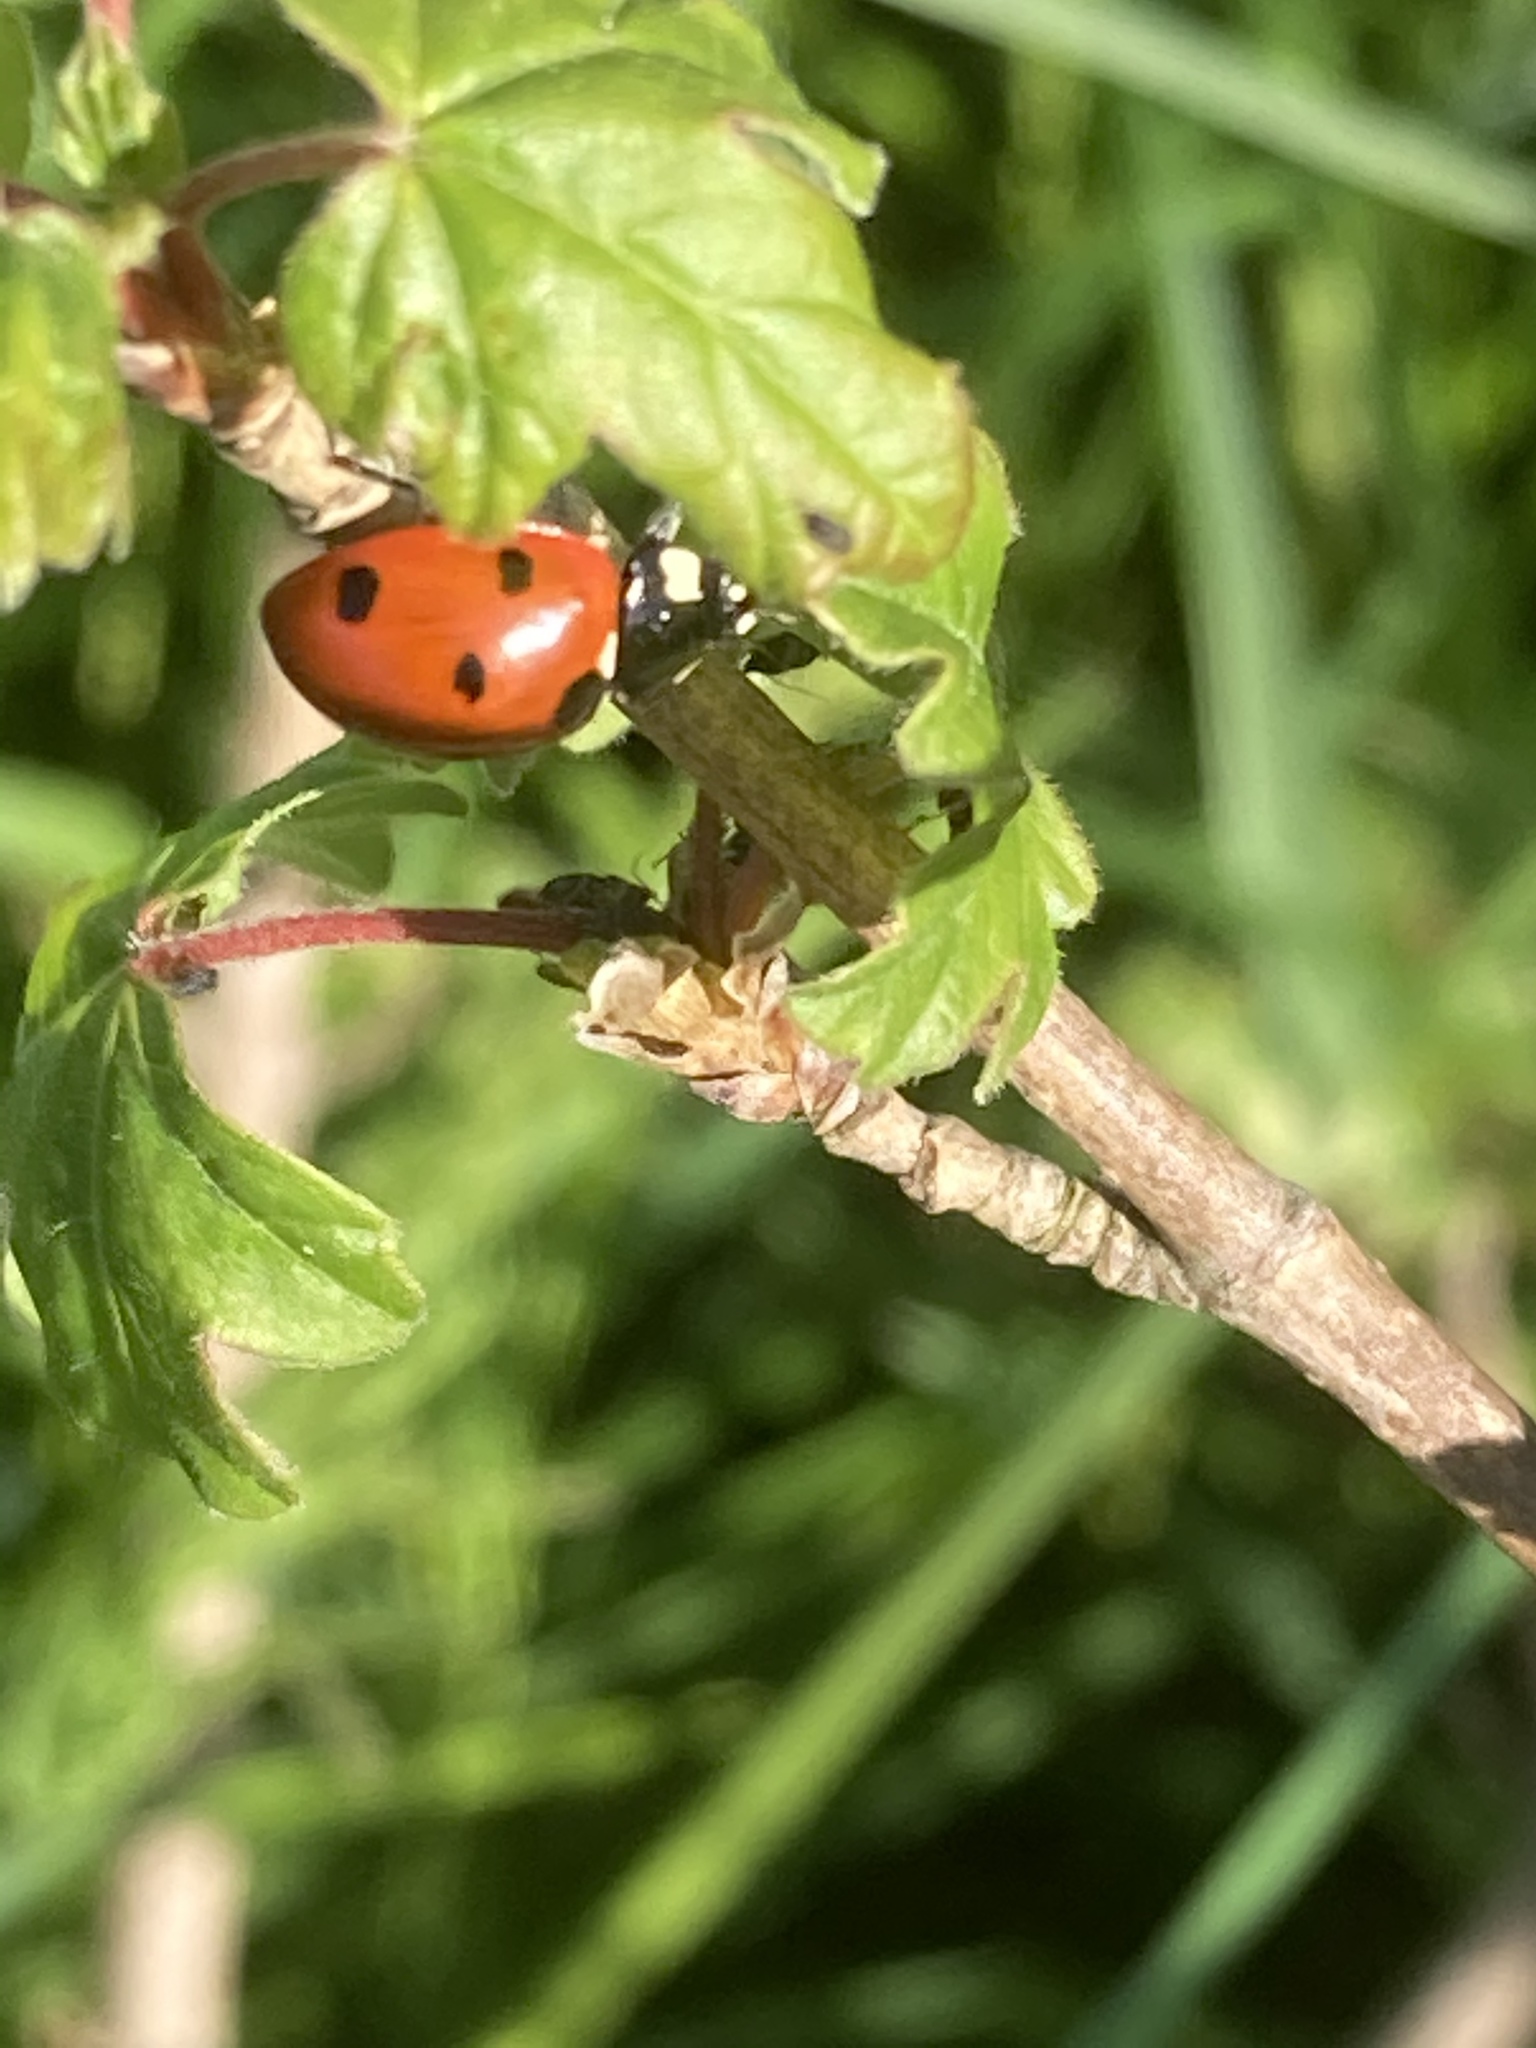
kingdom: Animalia
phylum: Arthropoda
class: Insecta
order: Coleoptera
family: Coccinellidae
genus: Coccinella
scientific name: Coccinella septempunctata
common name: Sevenspotted lady beetle
